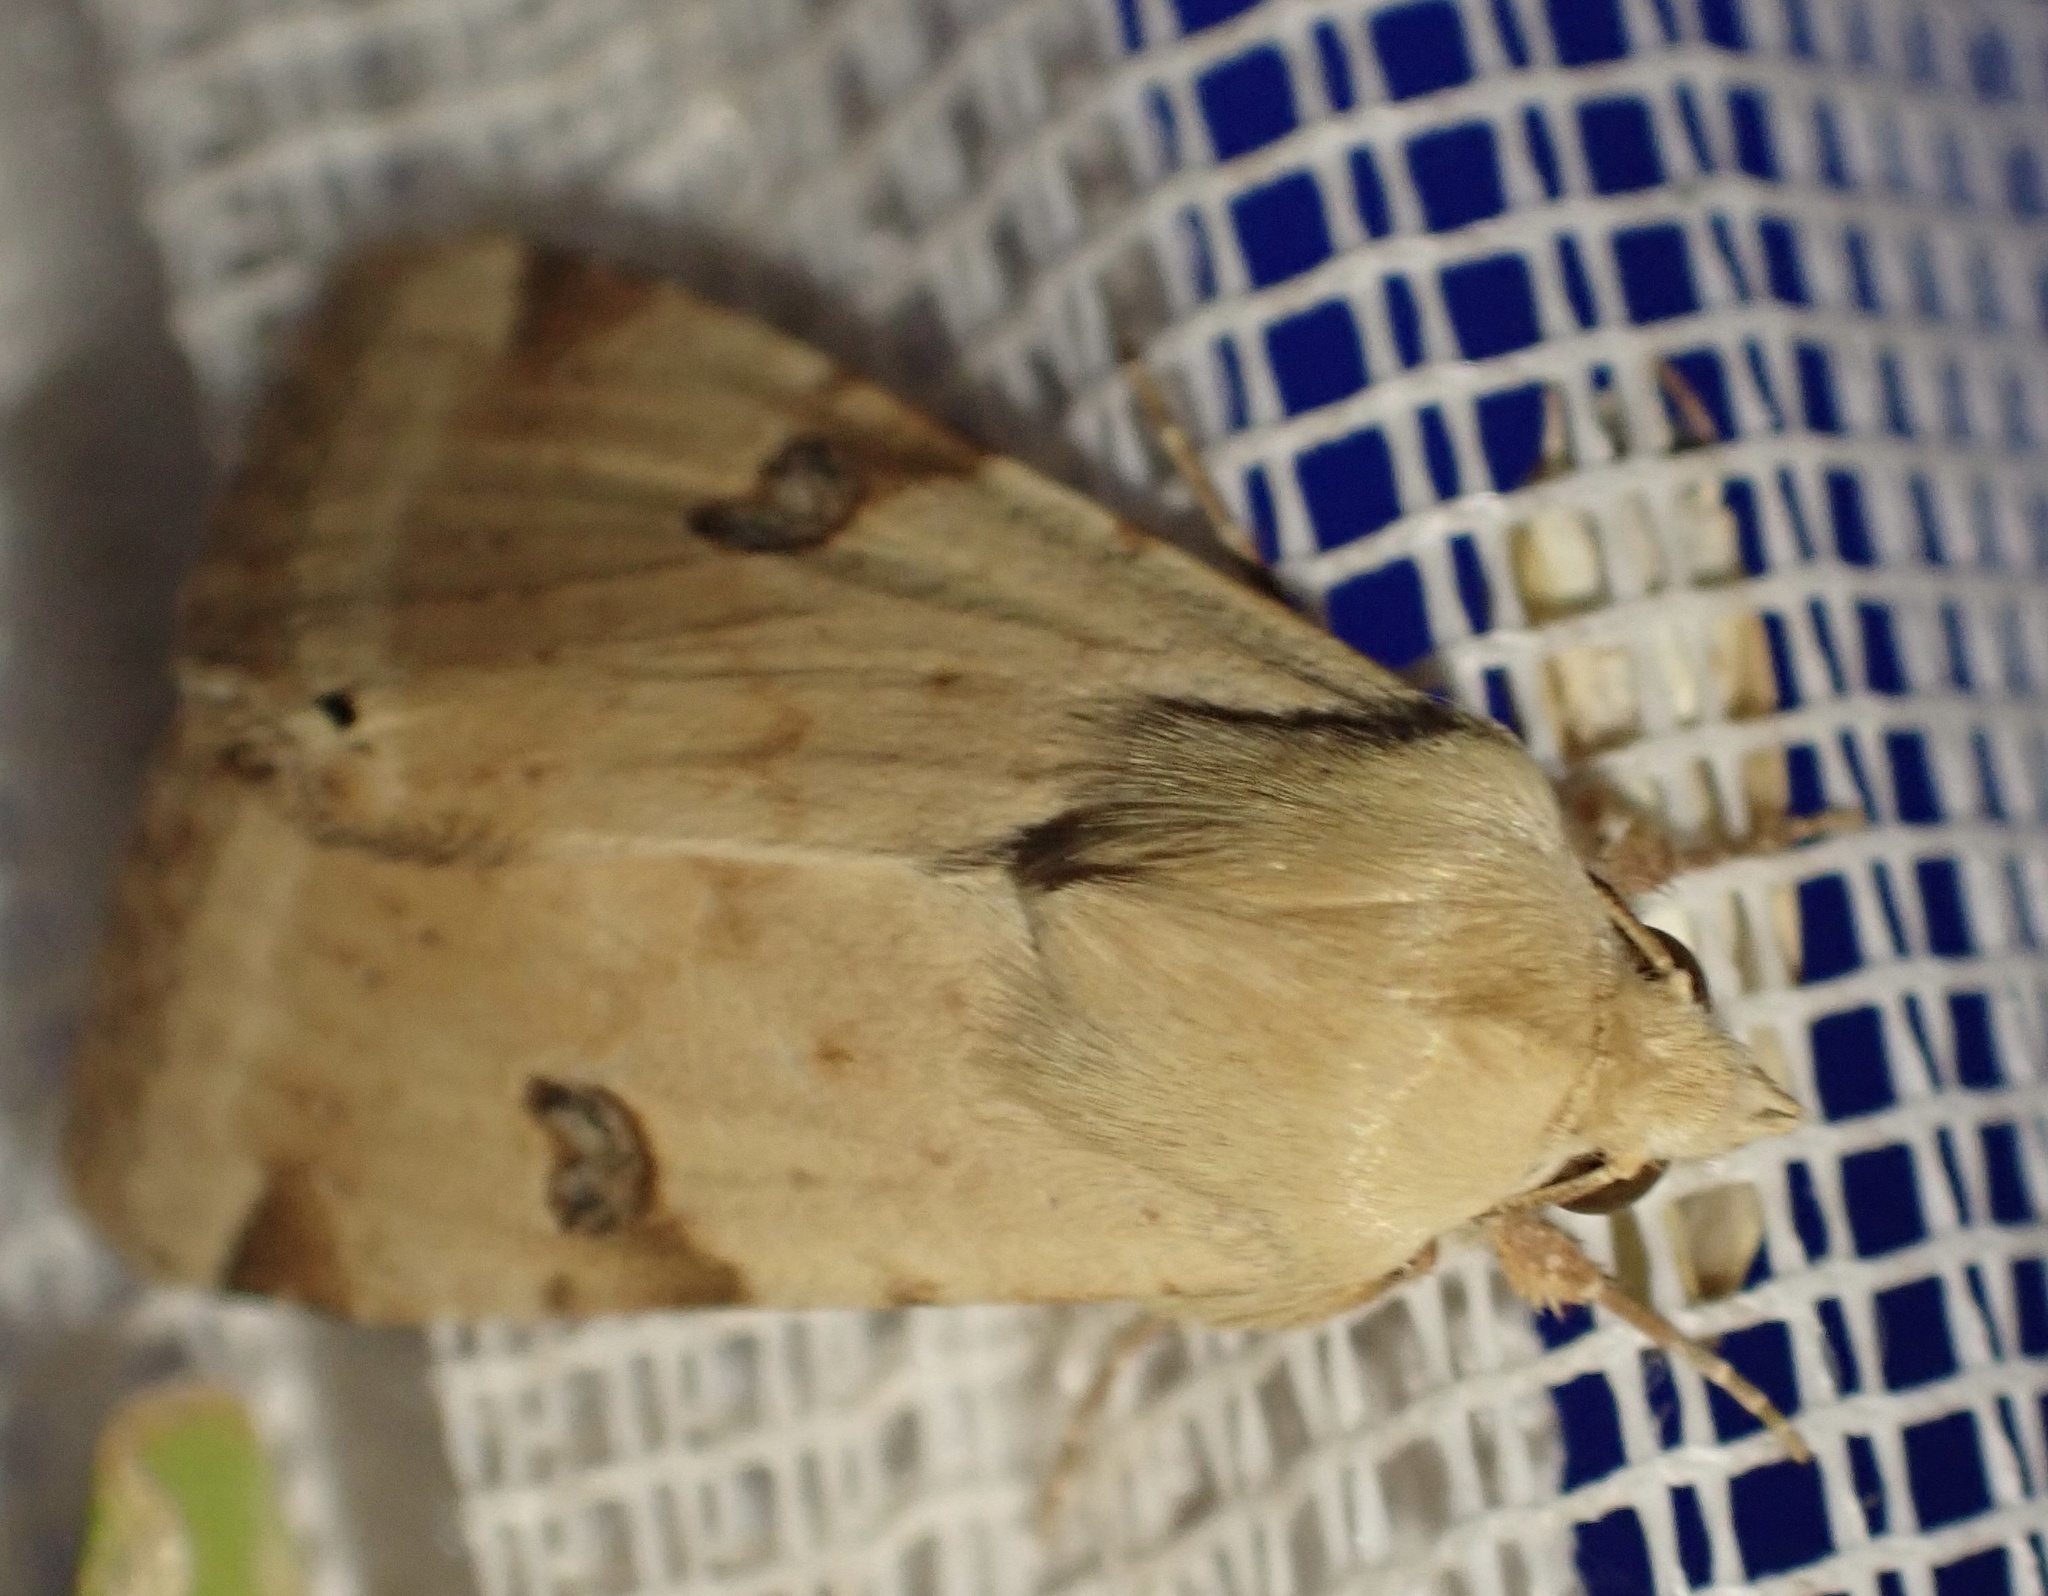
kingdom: Animalia
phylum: Arthropoda
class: Insecta
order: Lepidoptera
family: Noctuidae
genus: Heliothis
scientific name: Heliothis peltigera
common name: Bordered straw
